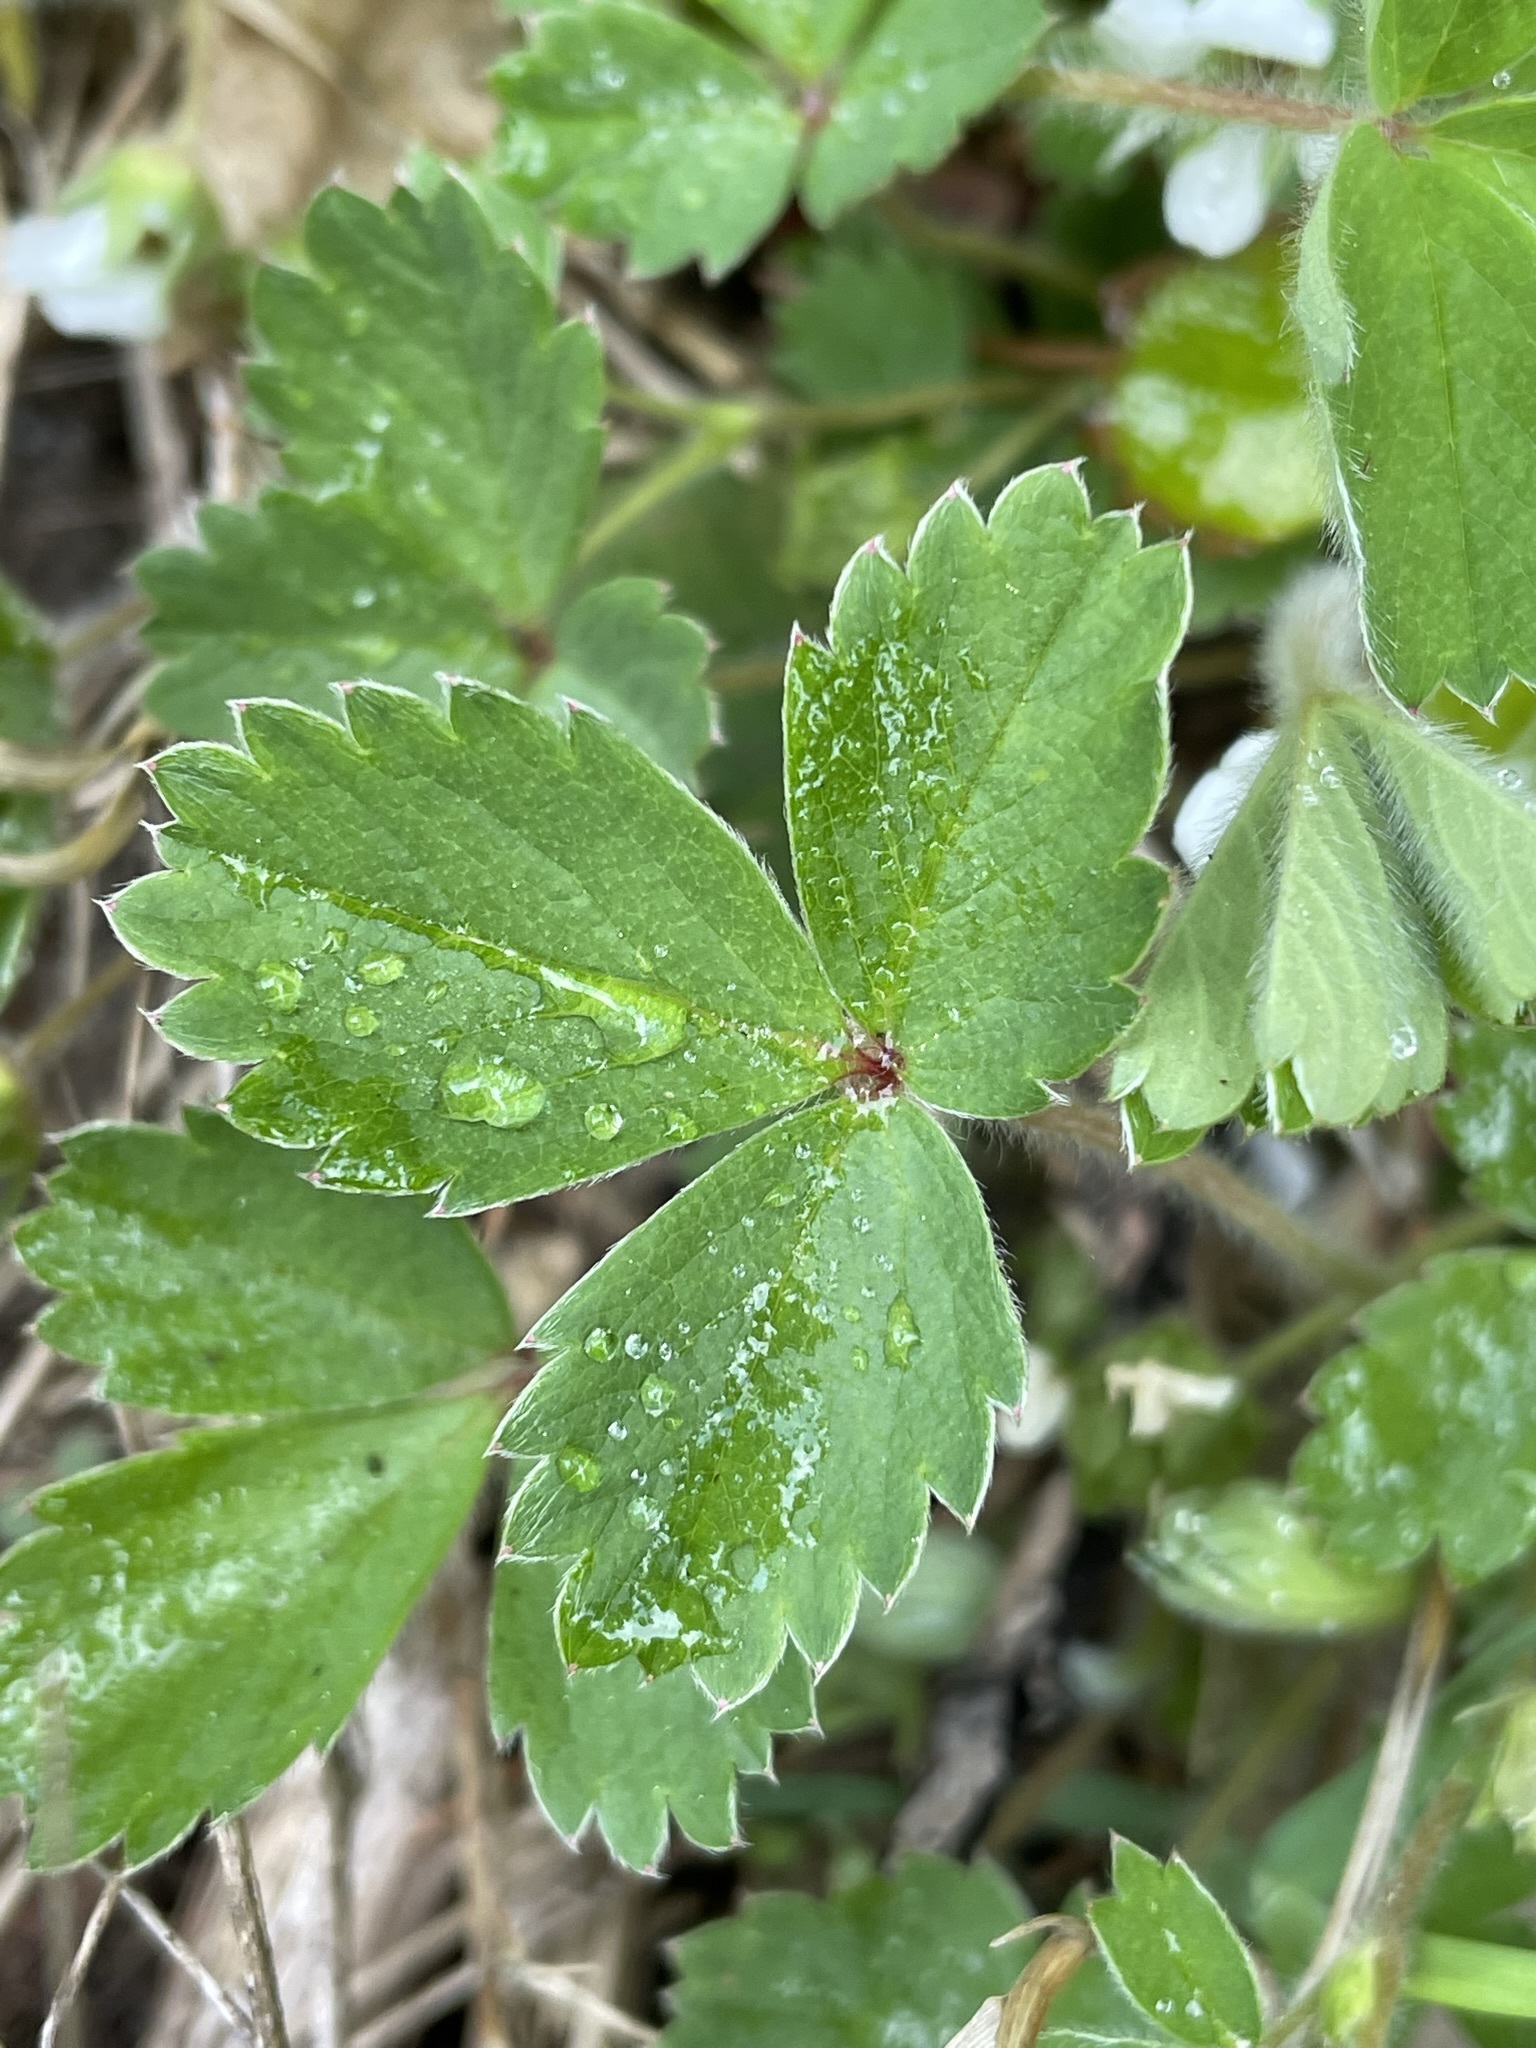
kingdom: Plantae
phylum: Tracheophyta
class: Magnoliopsida
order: Rosales
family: Rosaceae
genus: Potentilla
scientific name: Potentilla sterilis
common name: Barren strawberry
